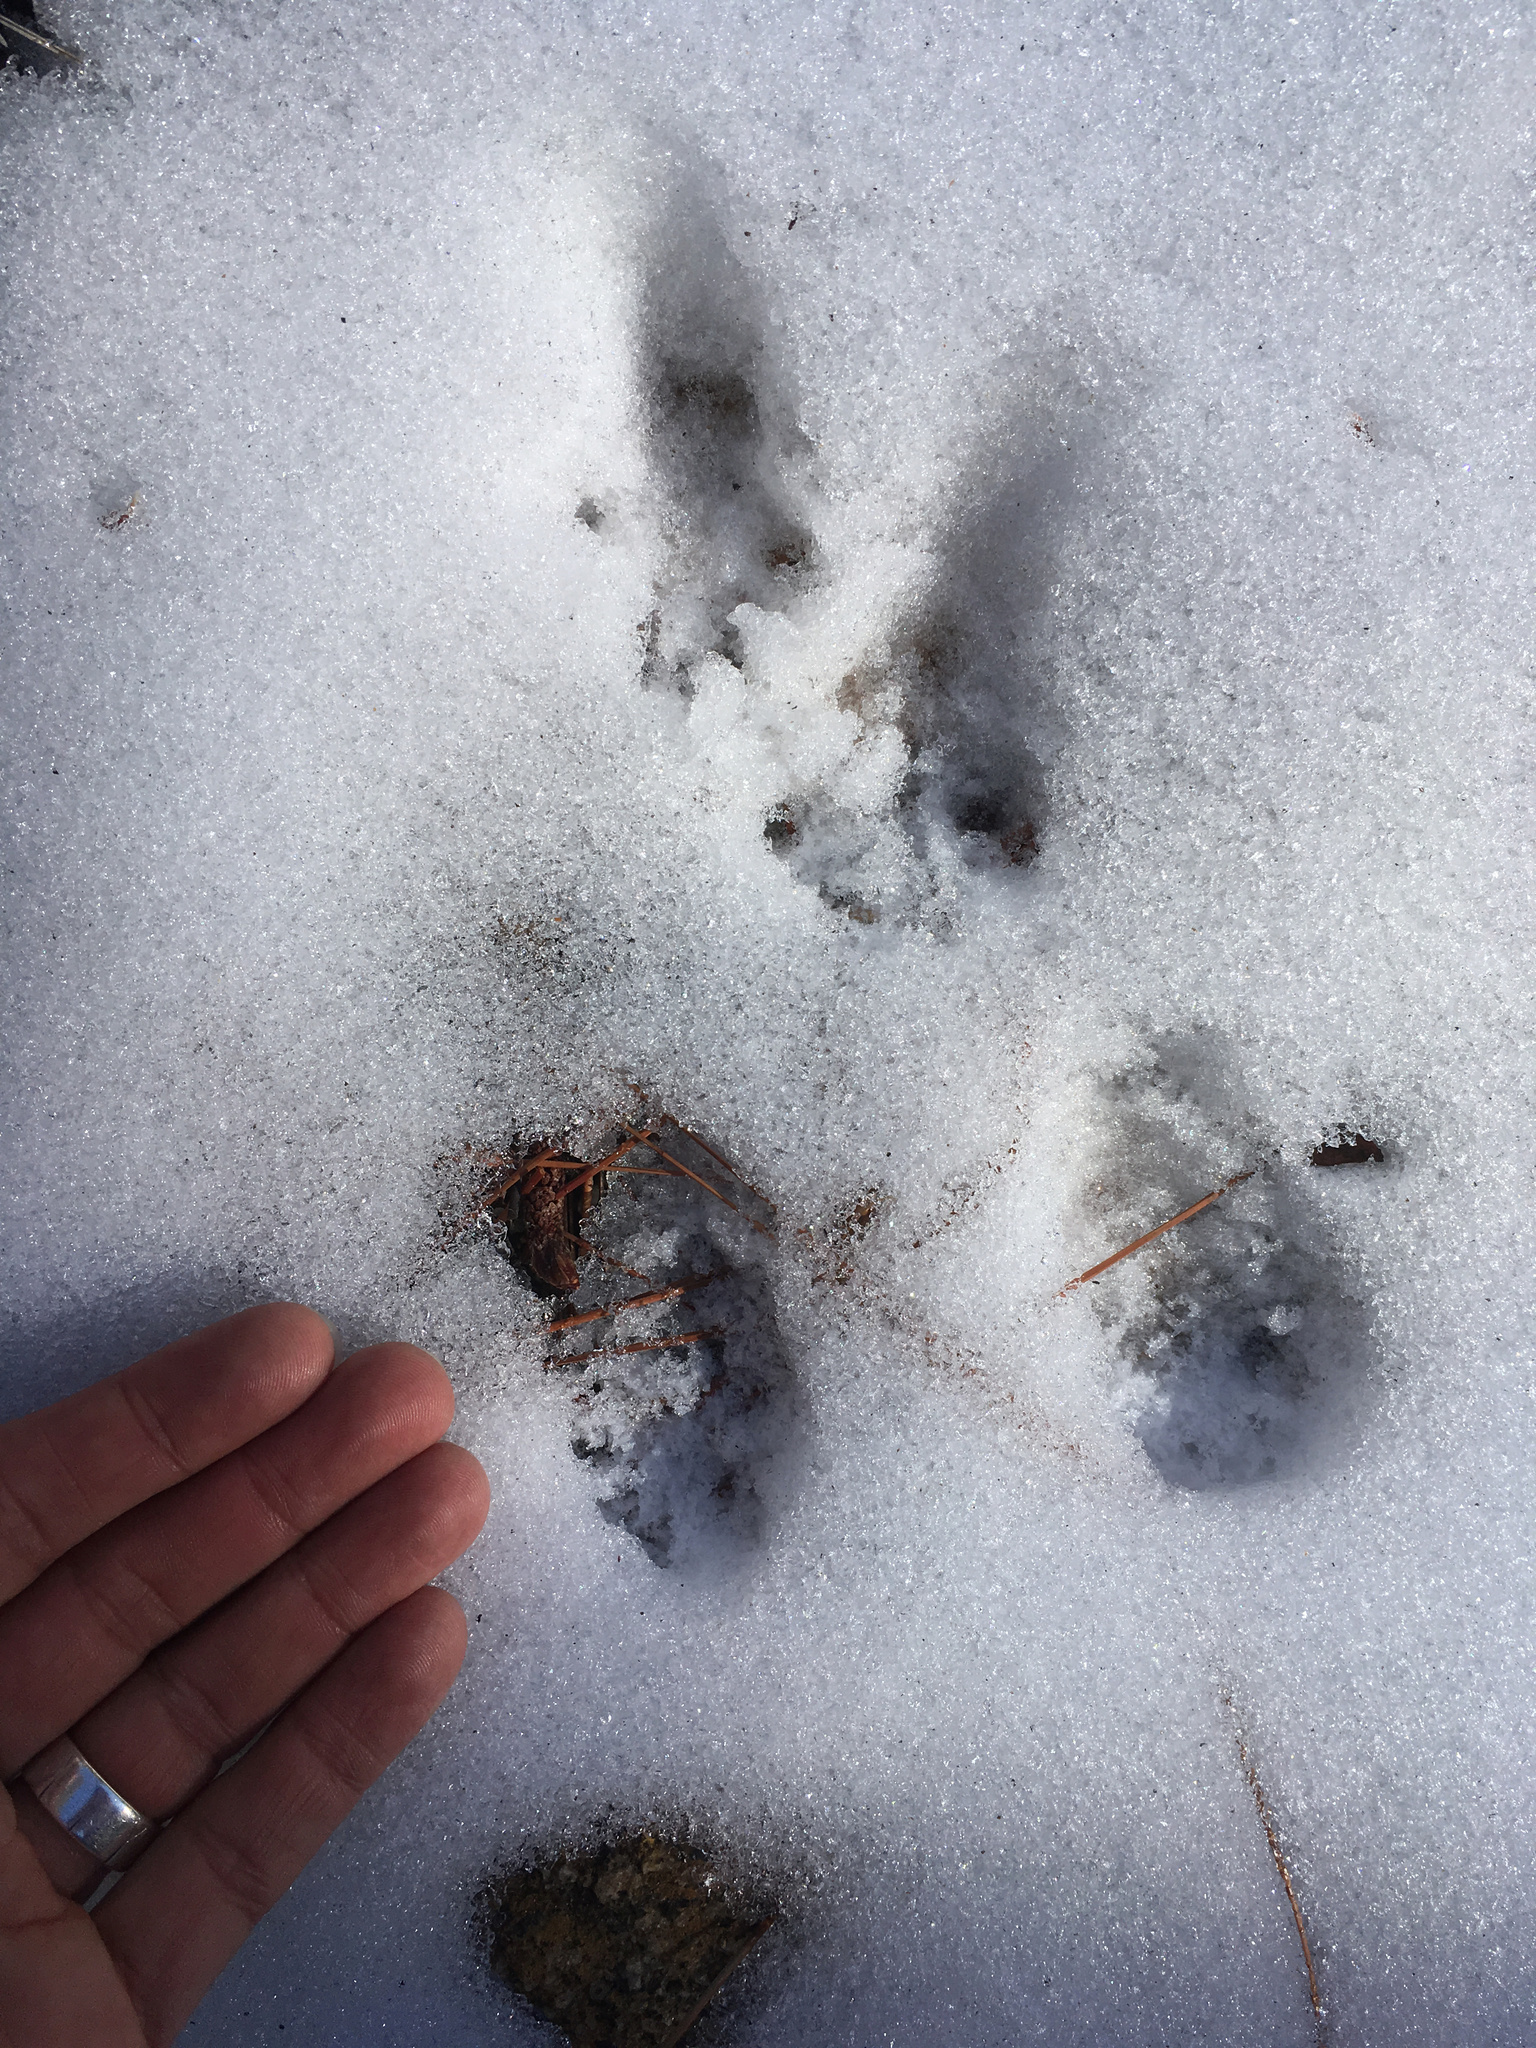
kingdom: Animalia
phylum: Chordata
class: Mammalia
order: Rodentia
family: Sciuridae
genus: Sciurus
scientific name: Sciurus griseus
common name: Western gray squirrel
